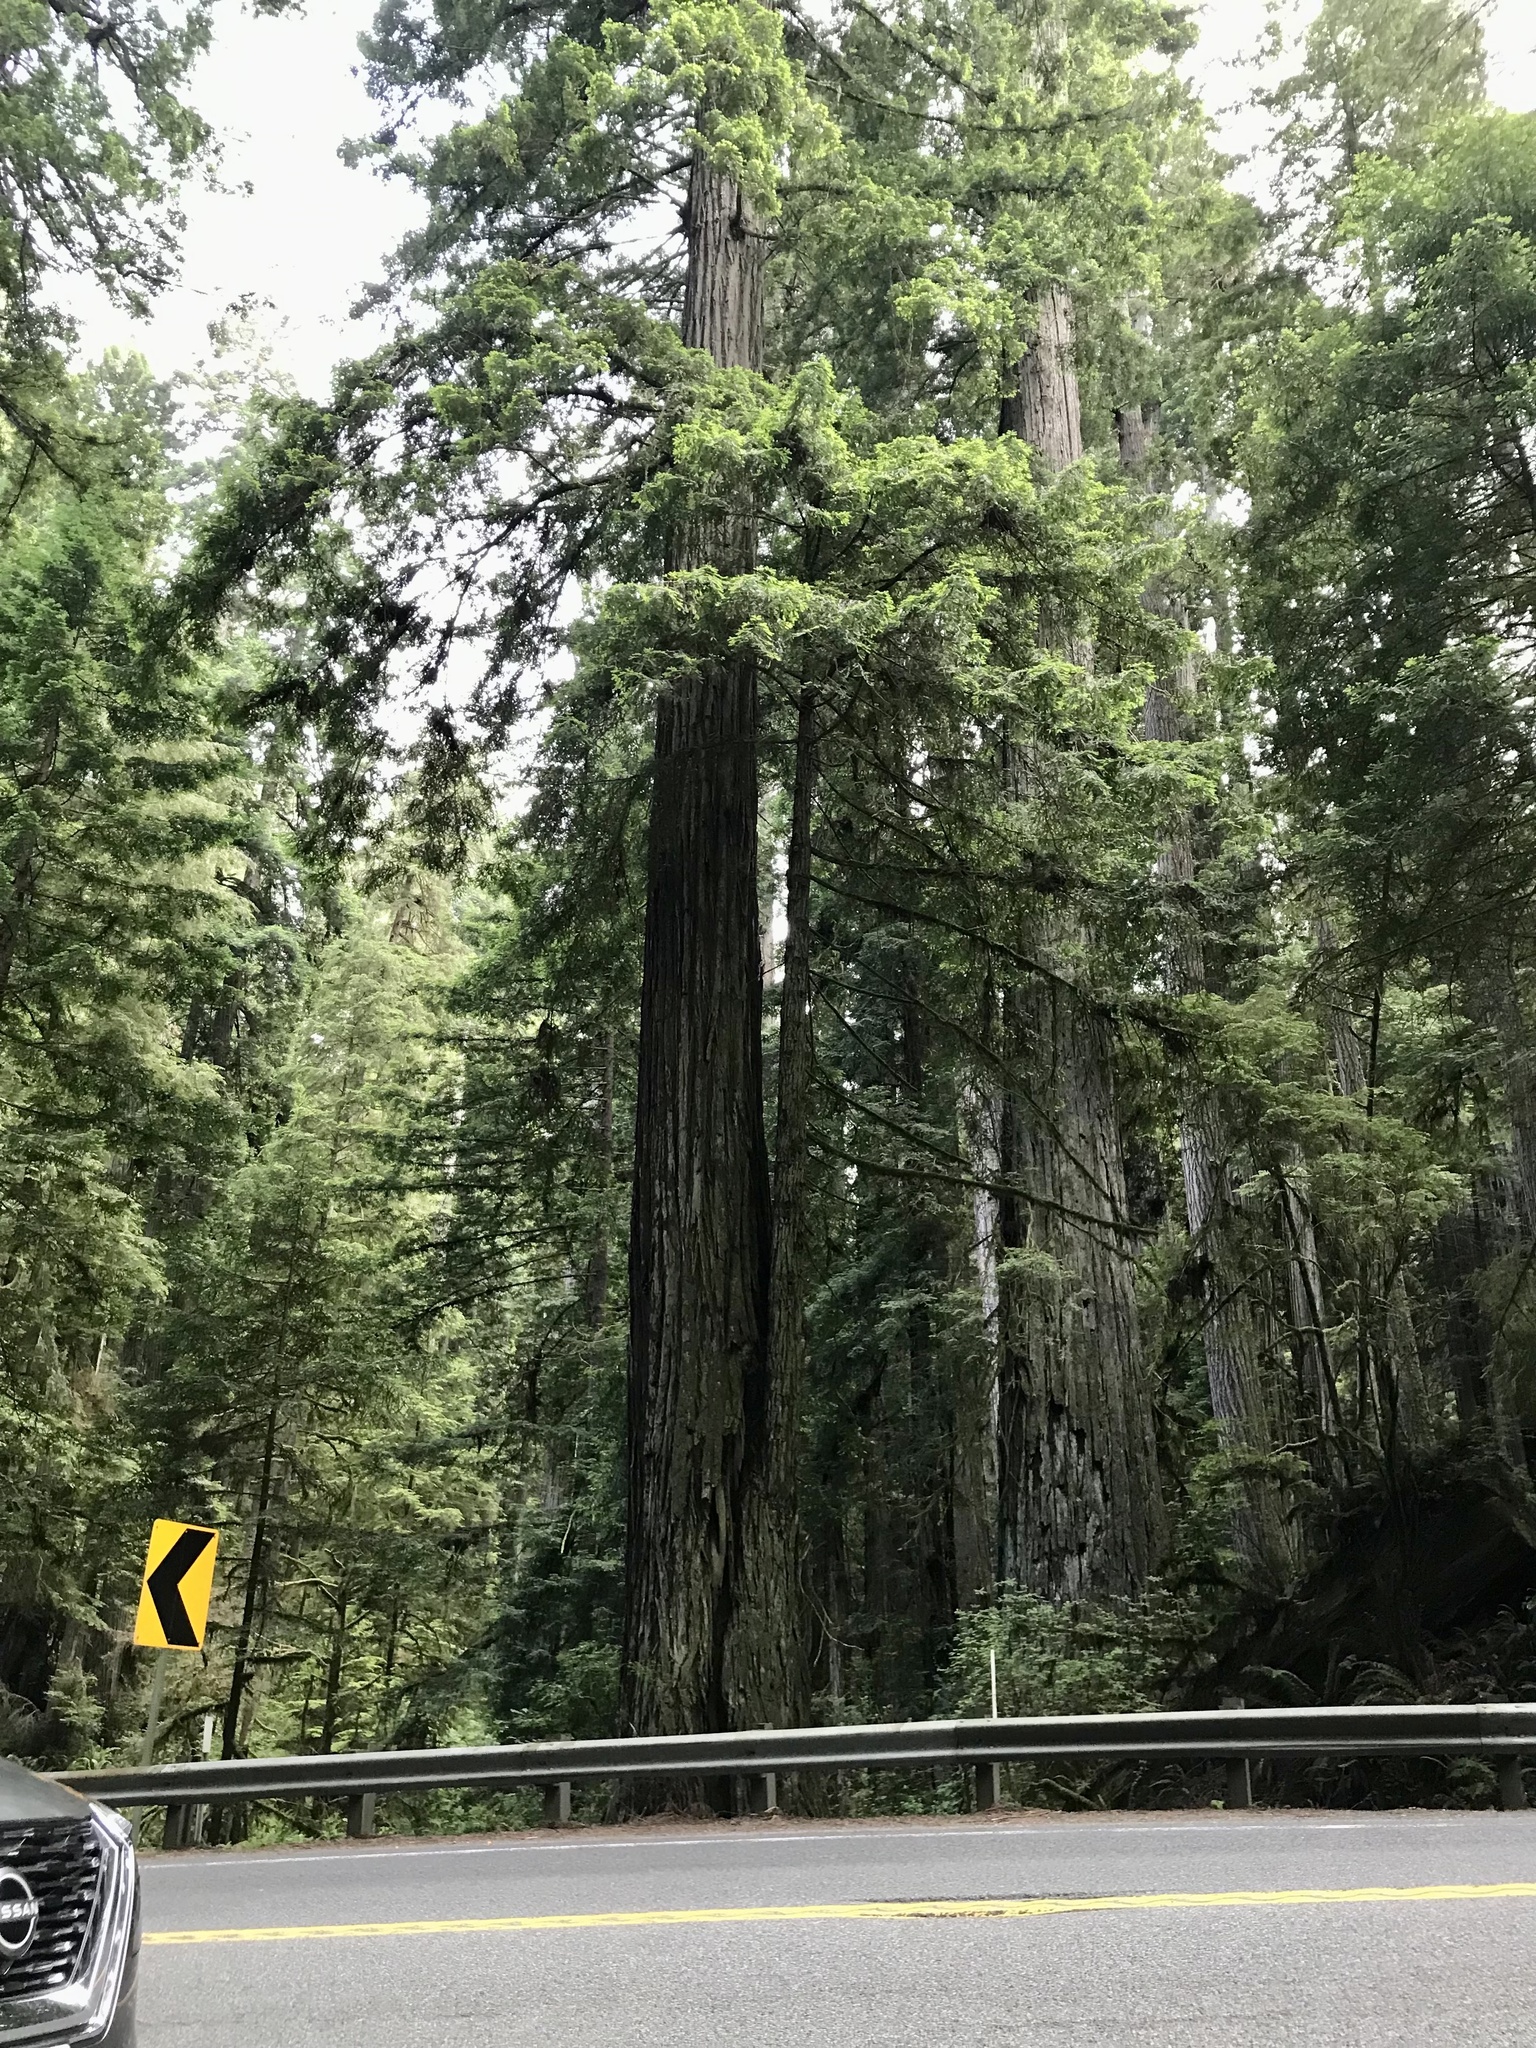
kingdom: Plantae
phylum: Tracheophyta
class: Pinopsida
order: Pinales
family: Cupressaceae
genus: Sequoia
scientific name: Sequoia sempervirens
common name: Coast redwood
